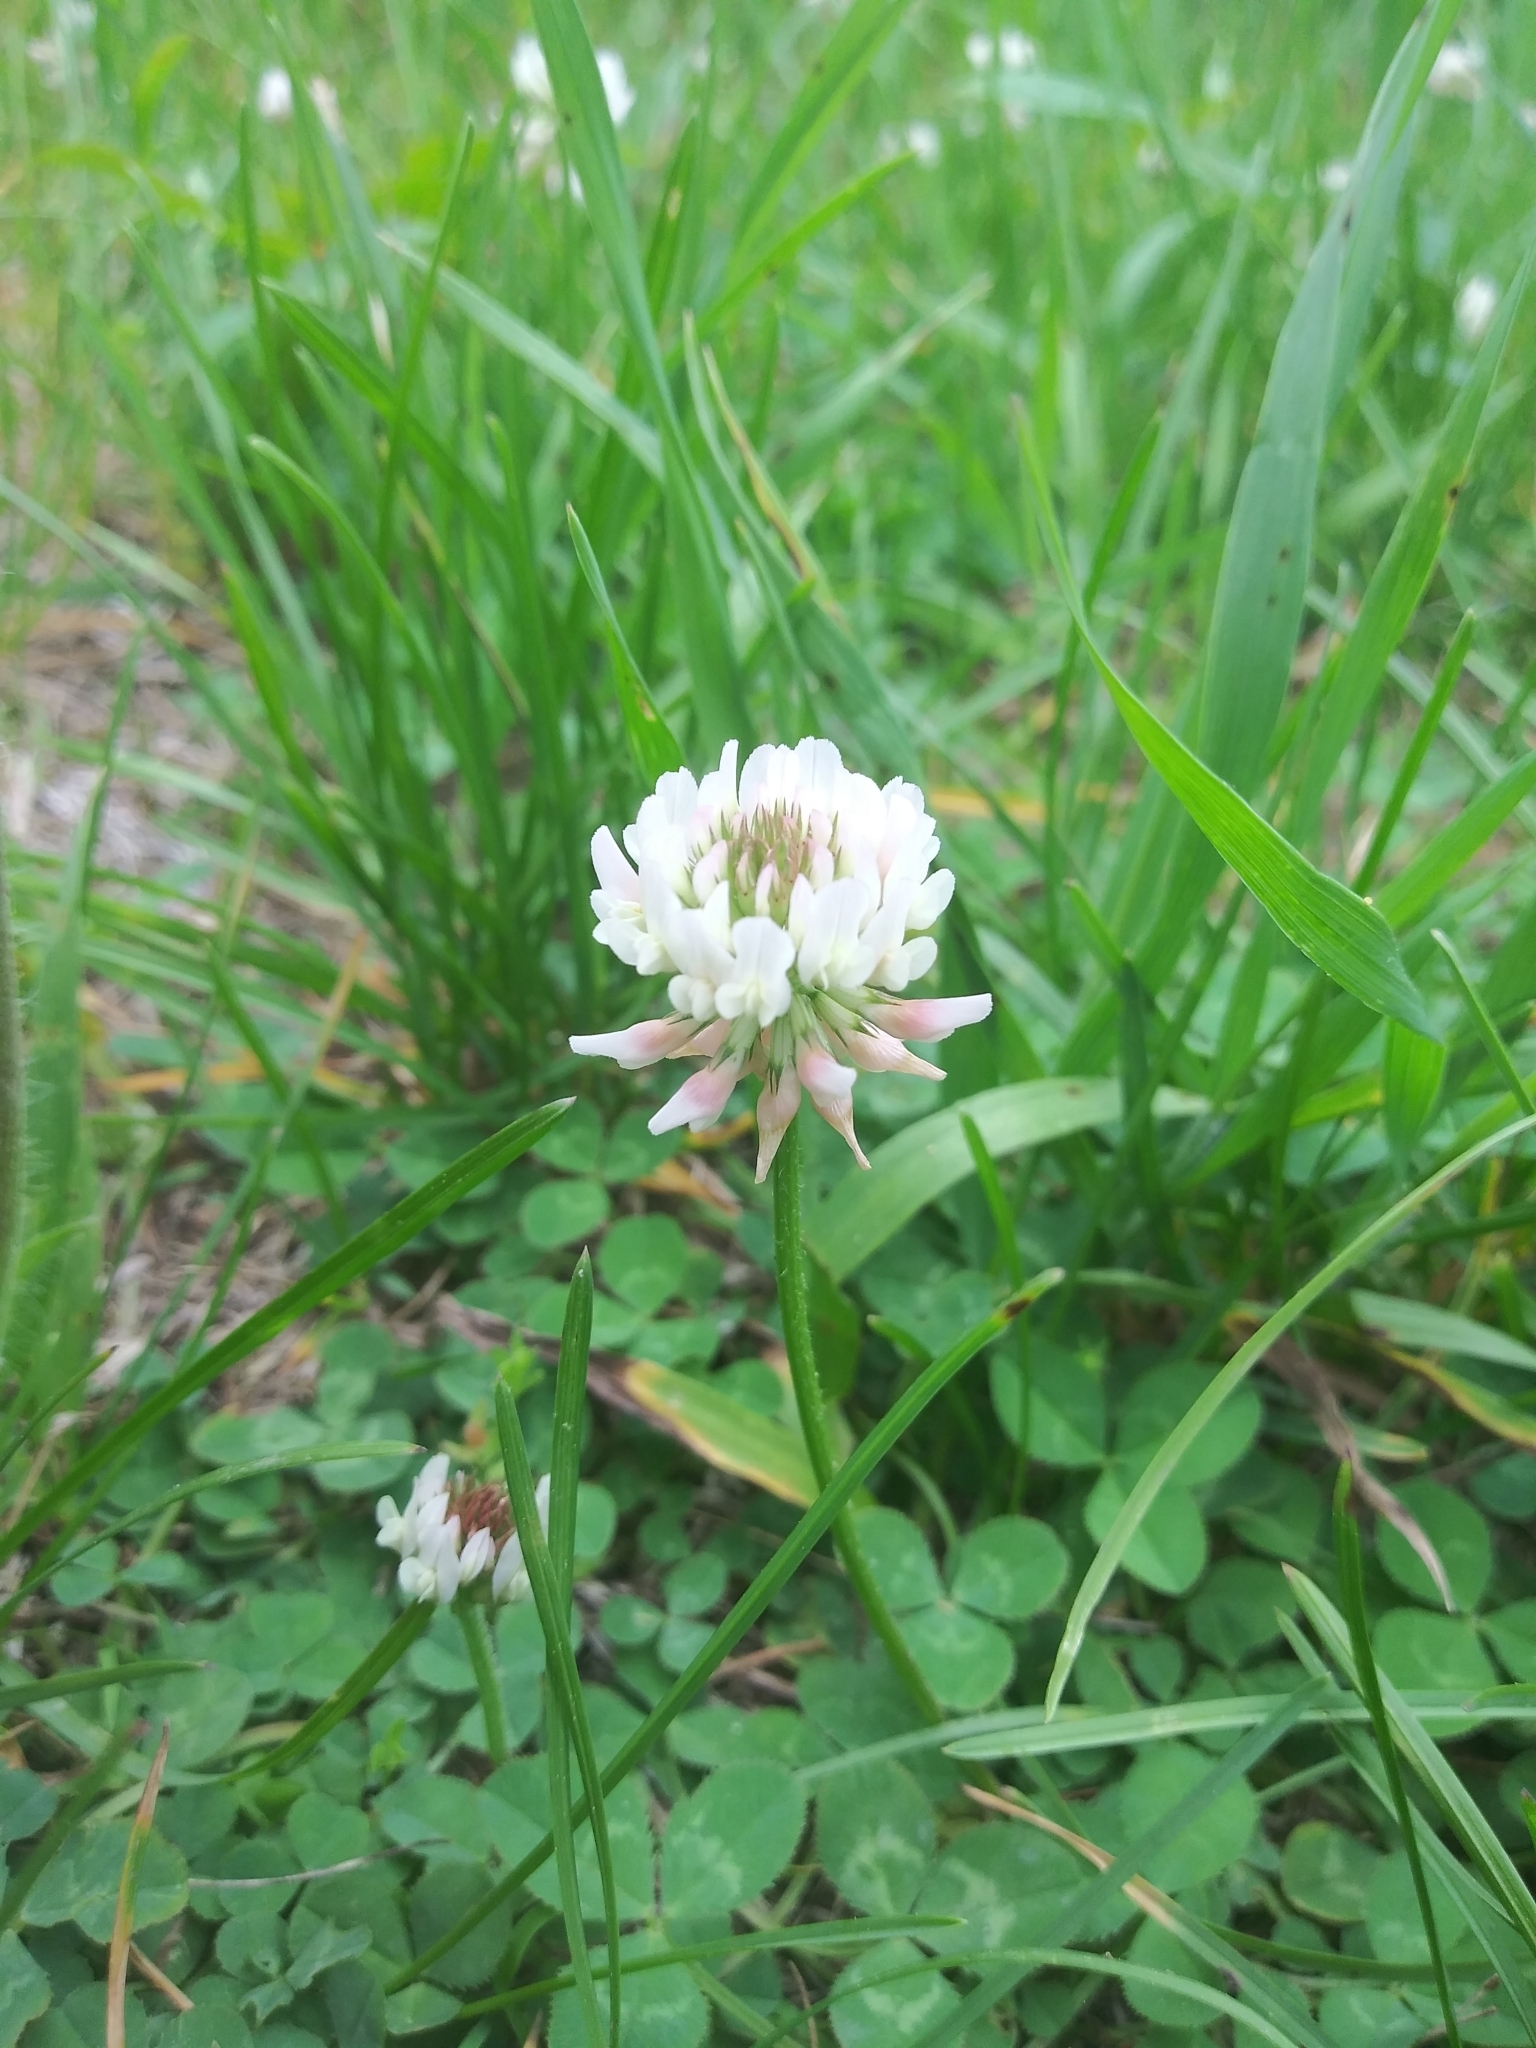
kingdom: Plantae
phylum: Tracheophyta
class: Magnoliopsida
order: Fabales
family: Fabaceae
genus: Trifolium
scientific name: Trifolium repens
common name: White clover
